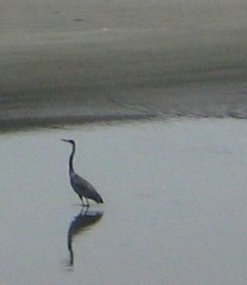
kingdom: Animalia
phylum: Chordata
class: Aves
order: Pelecaniformes
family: Ardeidae
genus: Ardea
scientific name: Ardea herodias
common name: Great blue heron
